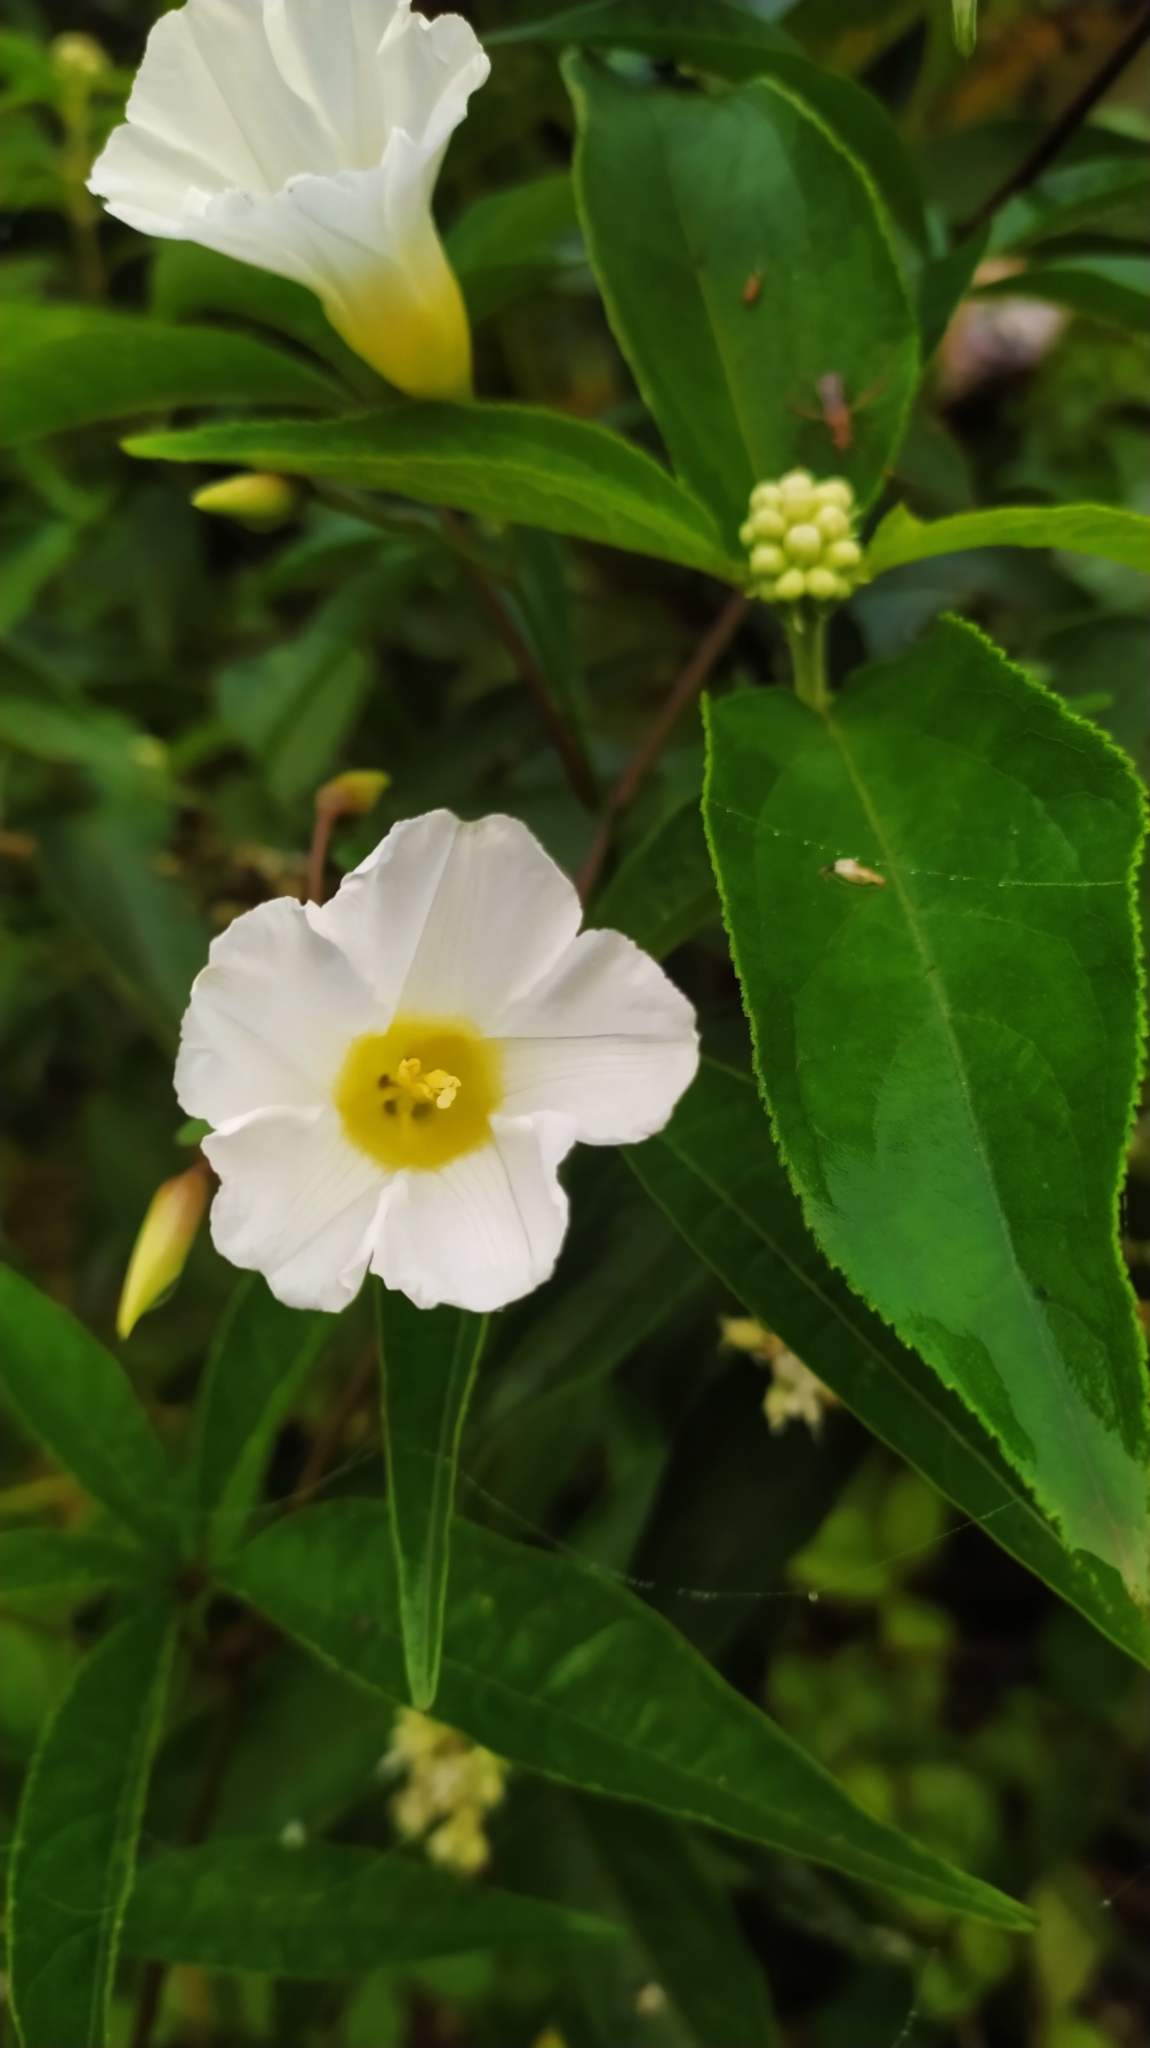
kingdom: Plantae
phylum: Tracheophyta
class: Magnoliopsida
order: Solanales
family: Convolvulaceae
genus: Distimake
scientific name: Distimake macrocalyx
